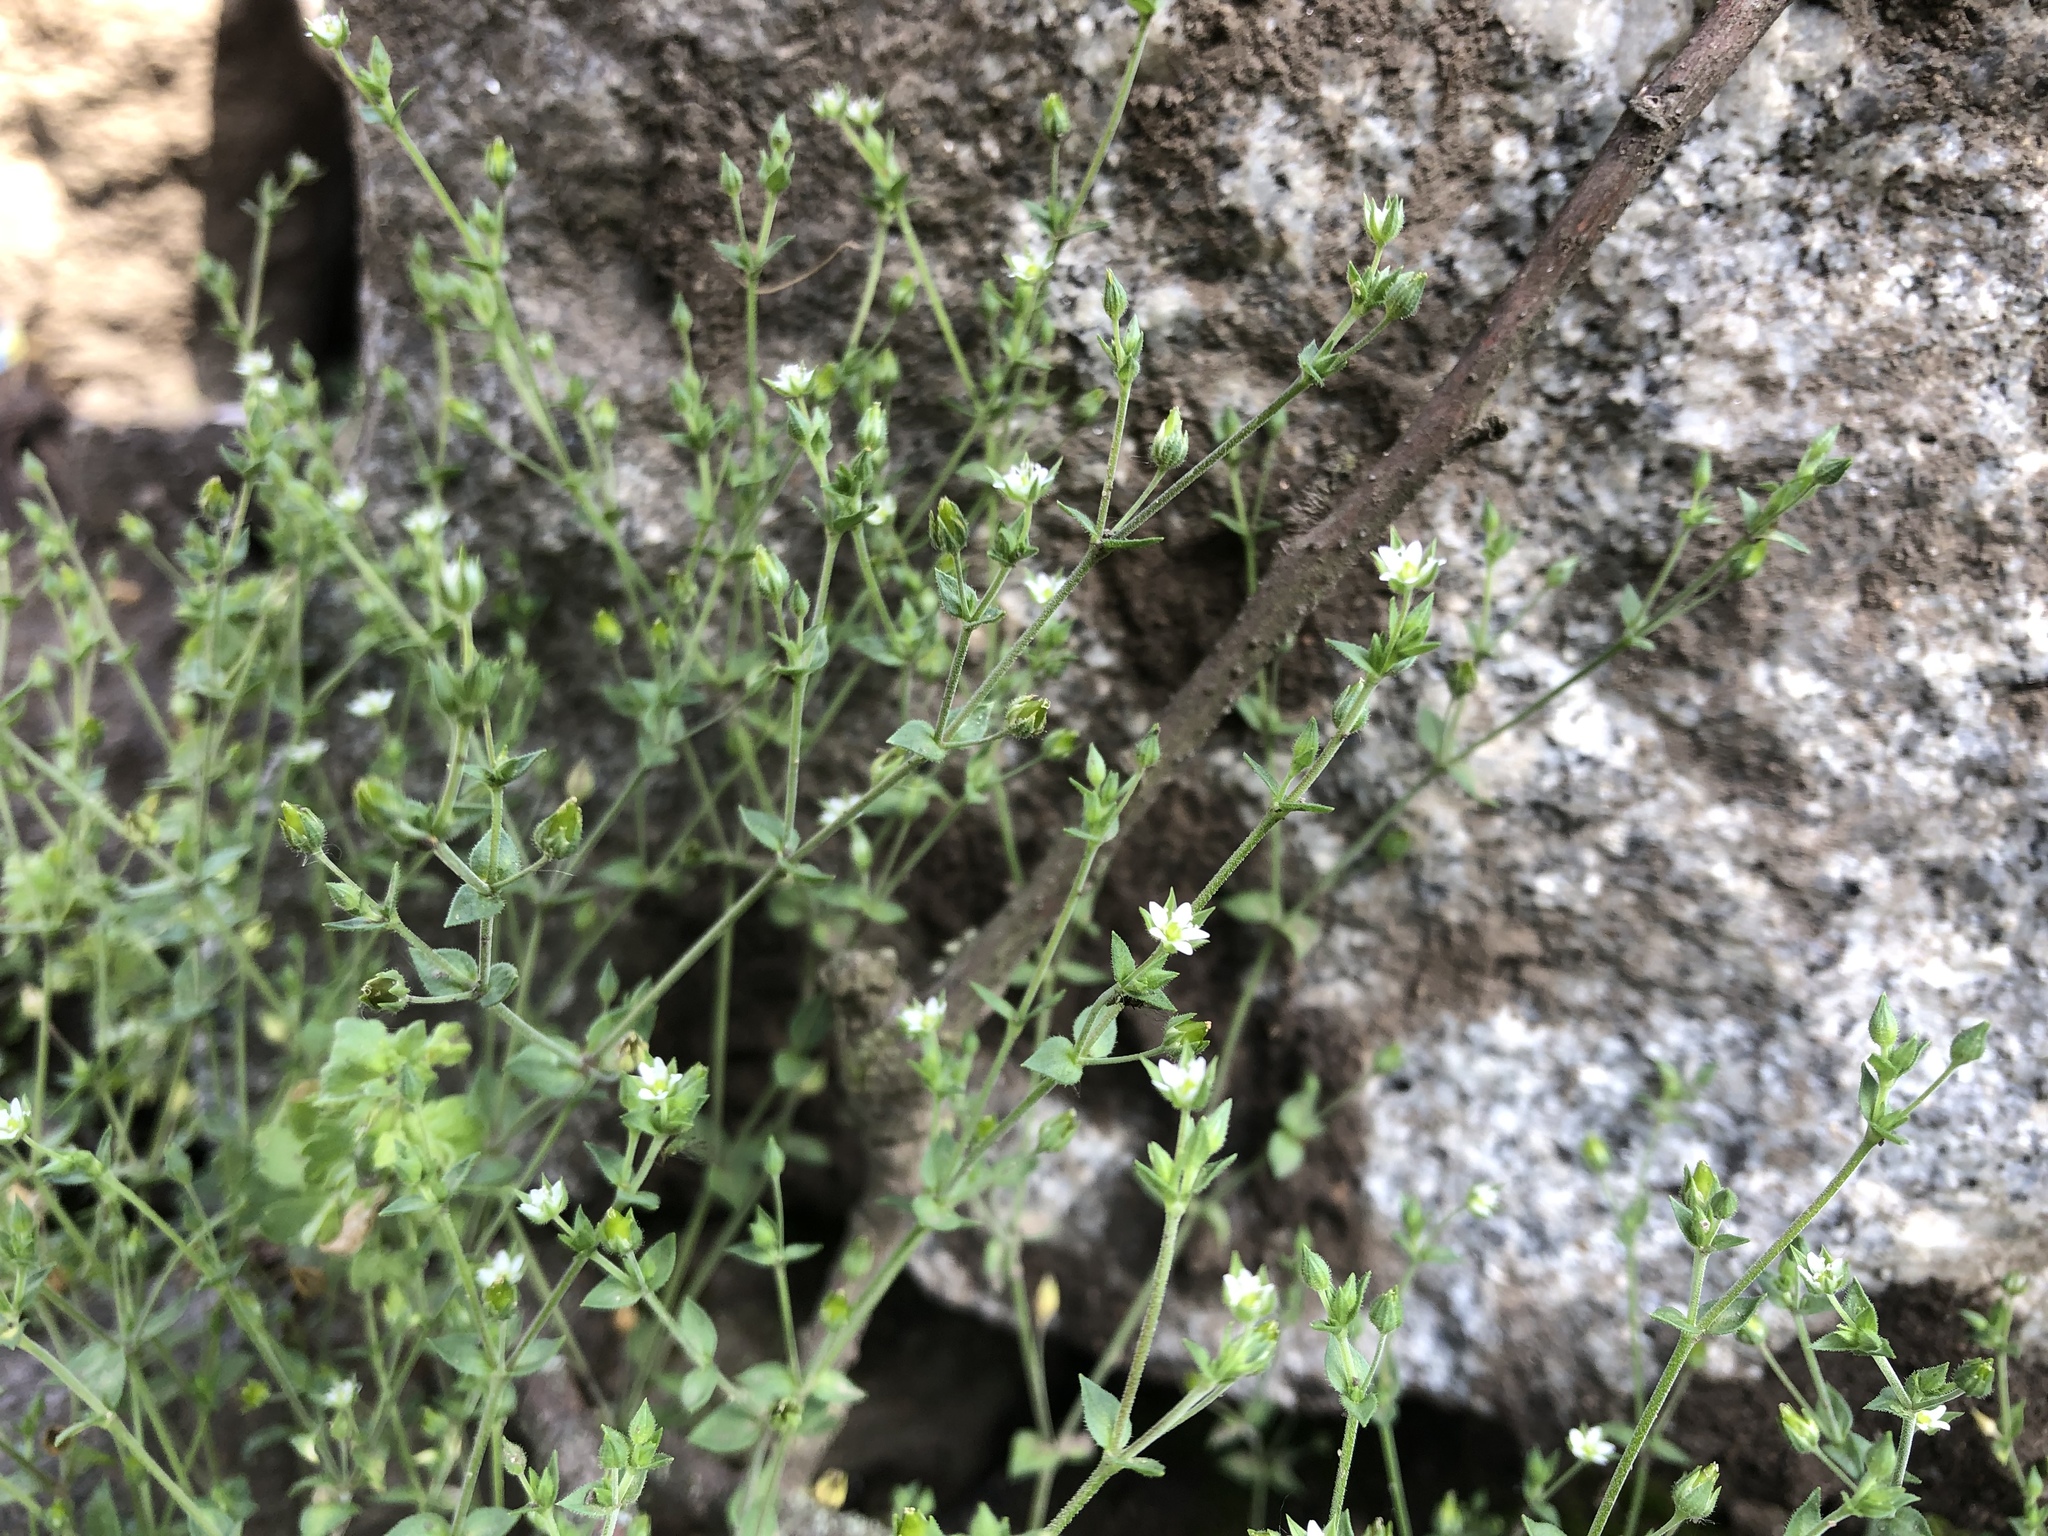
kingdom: Plantae
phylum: Tracheophyta
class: Magnoliopsida
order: Caryophyllales
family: Caryophyllaceae
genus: Arenaria
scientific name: Arenaria serpyllifolia
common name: Thyme-leaved sandwort
